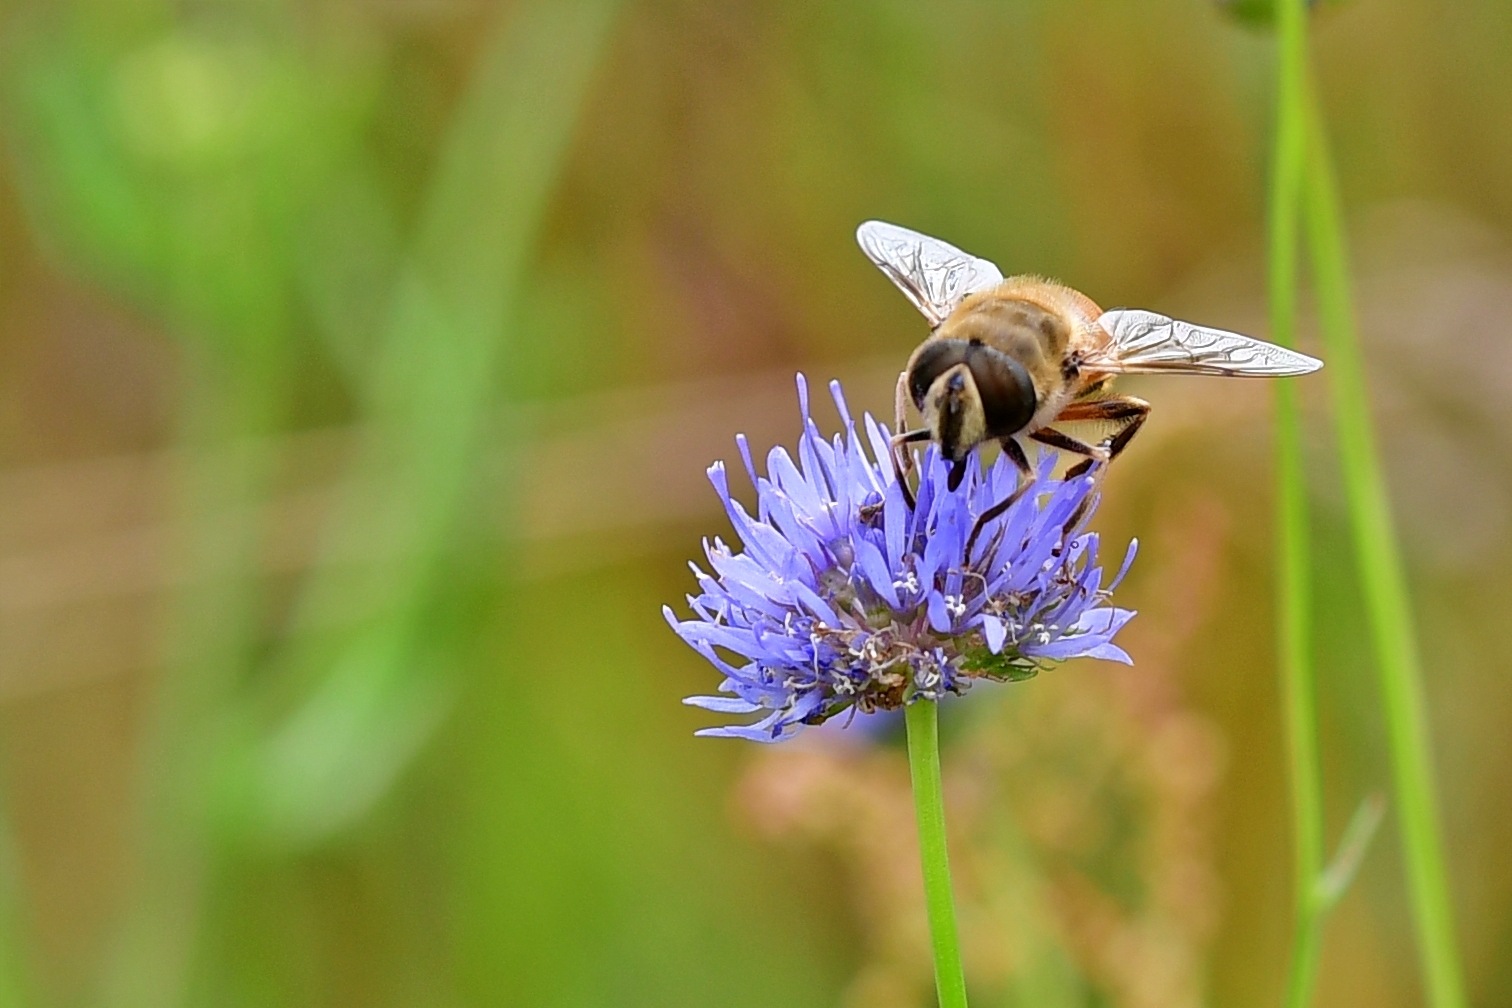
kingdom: Animalia
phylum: Arthropoda
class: Insecta
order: Diptera
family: Syrphidae
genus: Eristalis
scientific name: Eristalis tenax
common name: Drone fly
